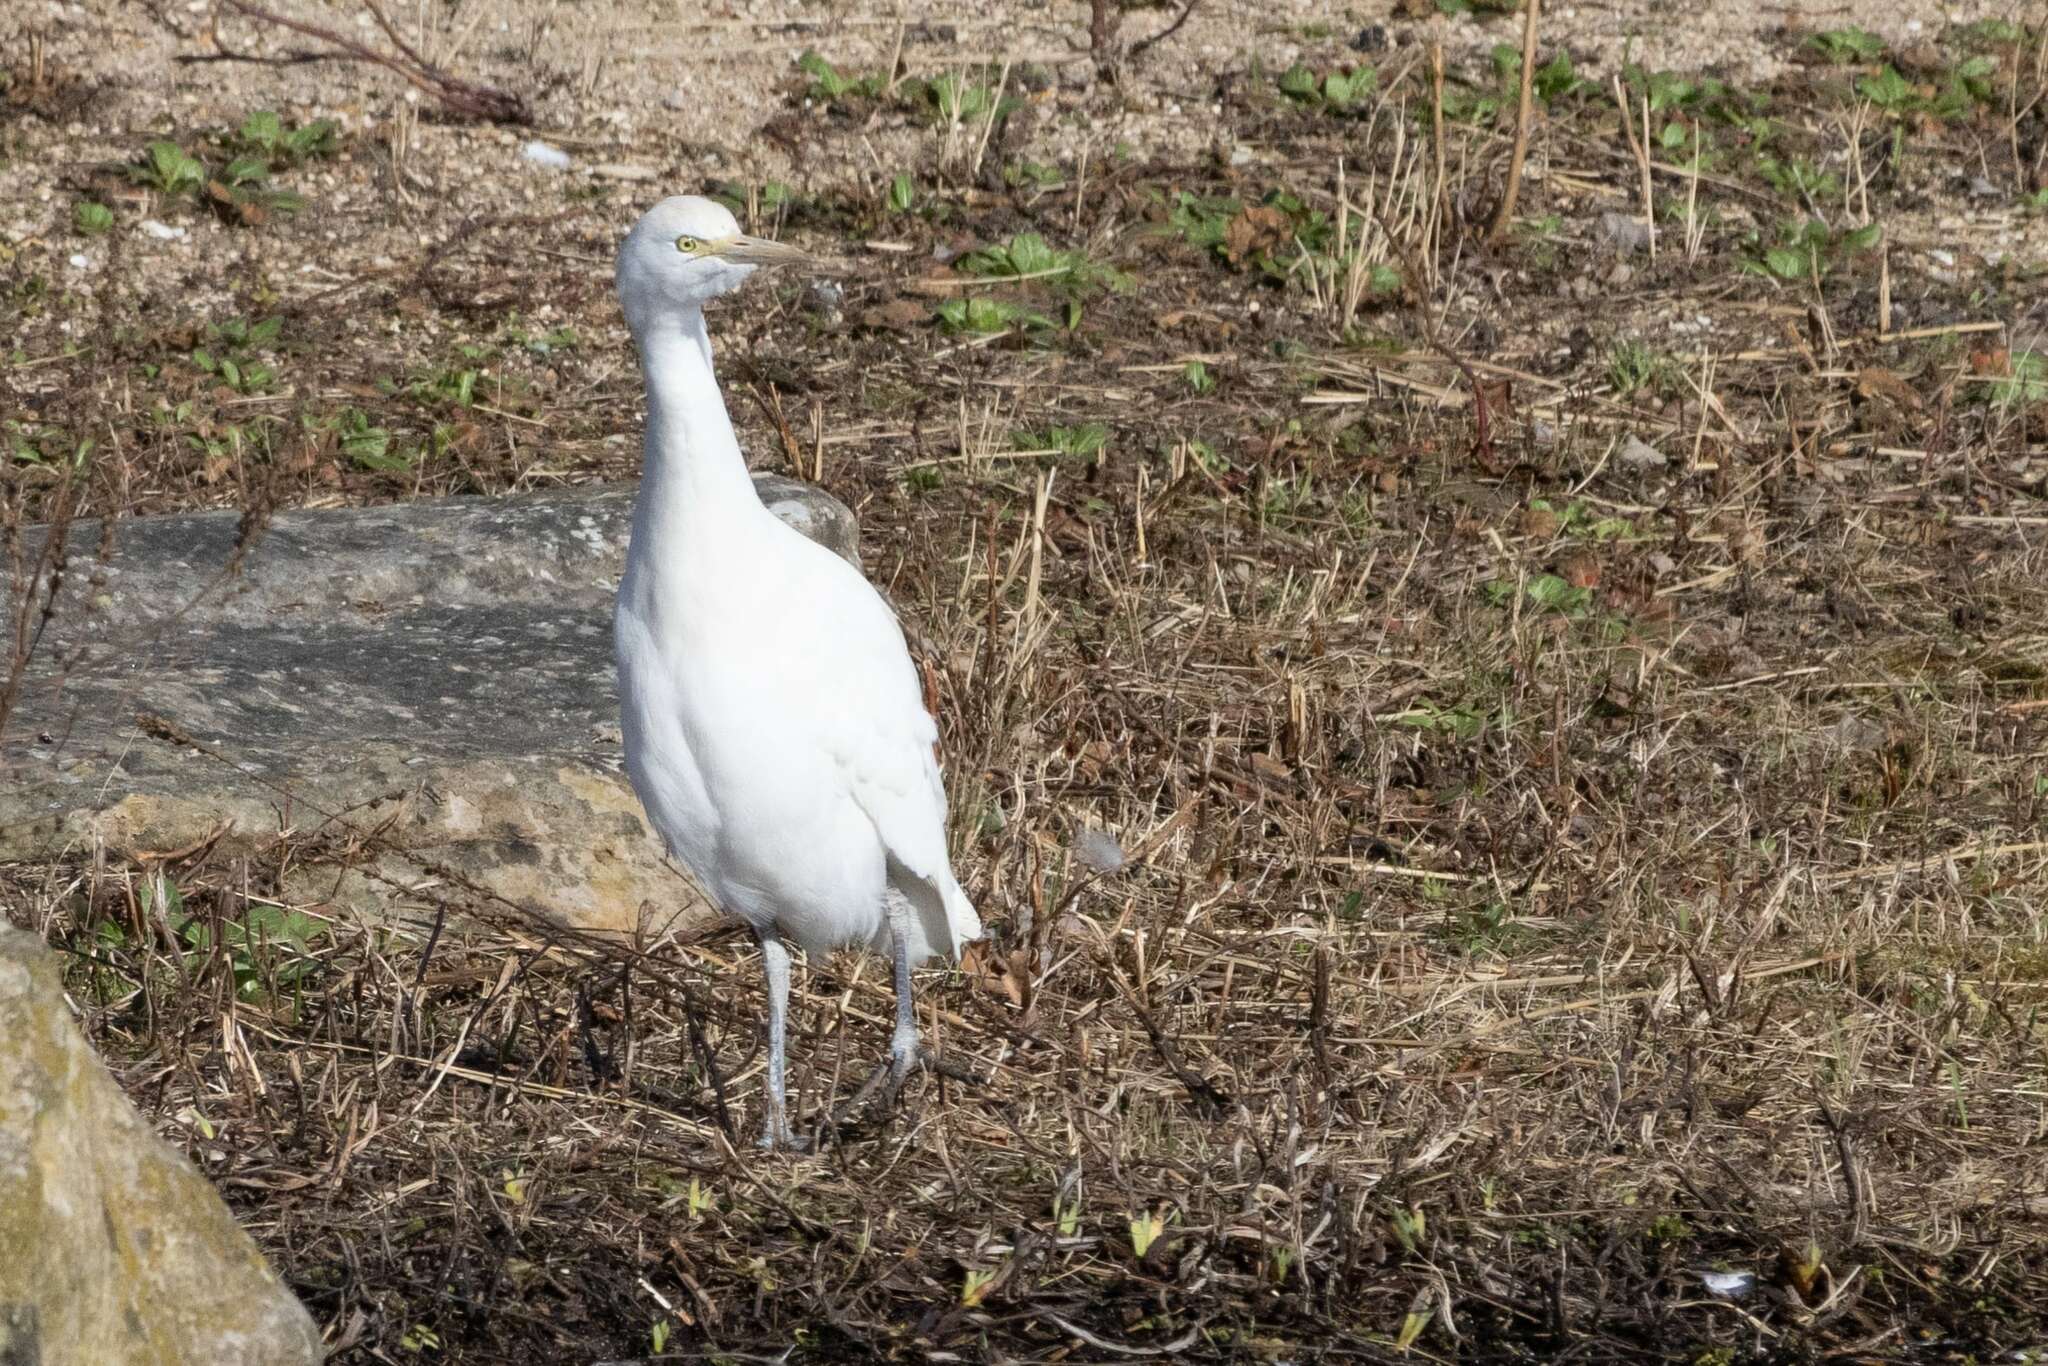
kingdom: Animalia
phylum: Chordata
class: Aves
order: Pelecaniformes
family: Ardeidae
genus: Bubulcus
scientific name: Bubulcus ibis
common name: Cattle egret
